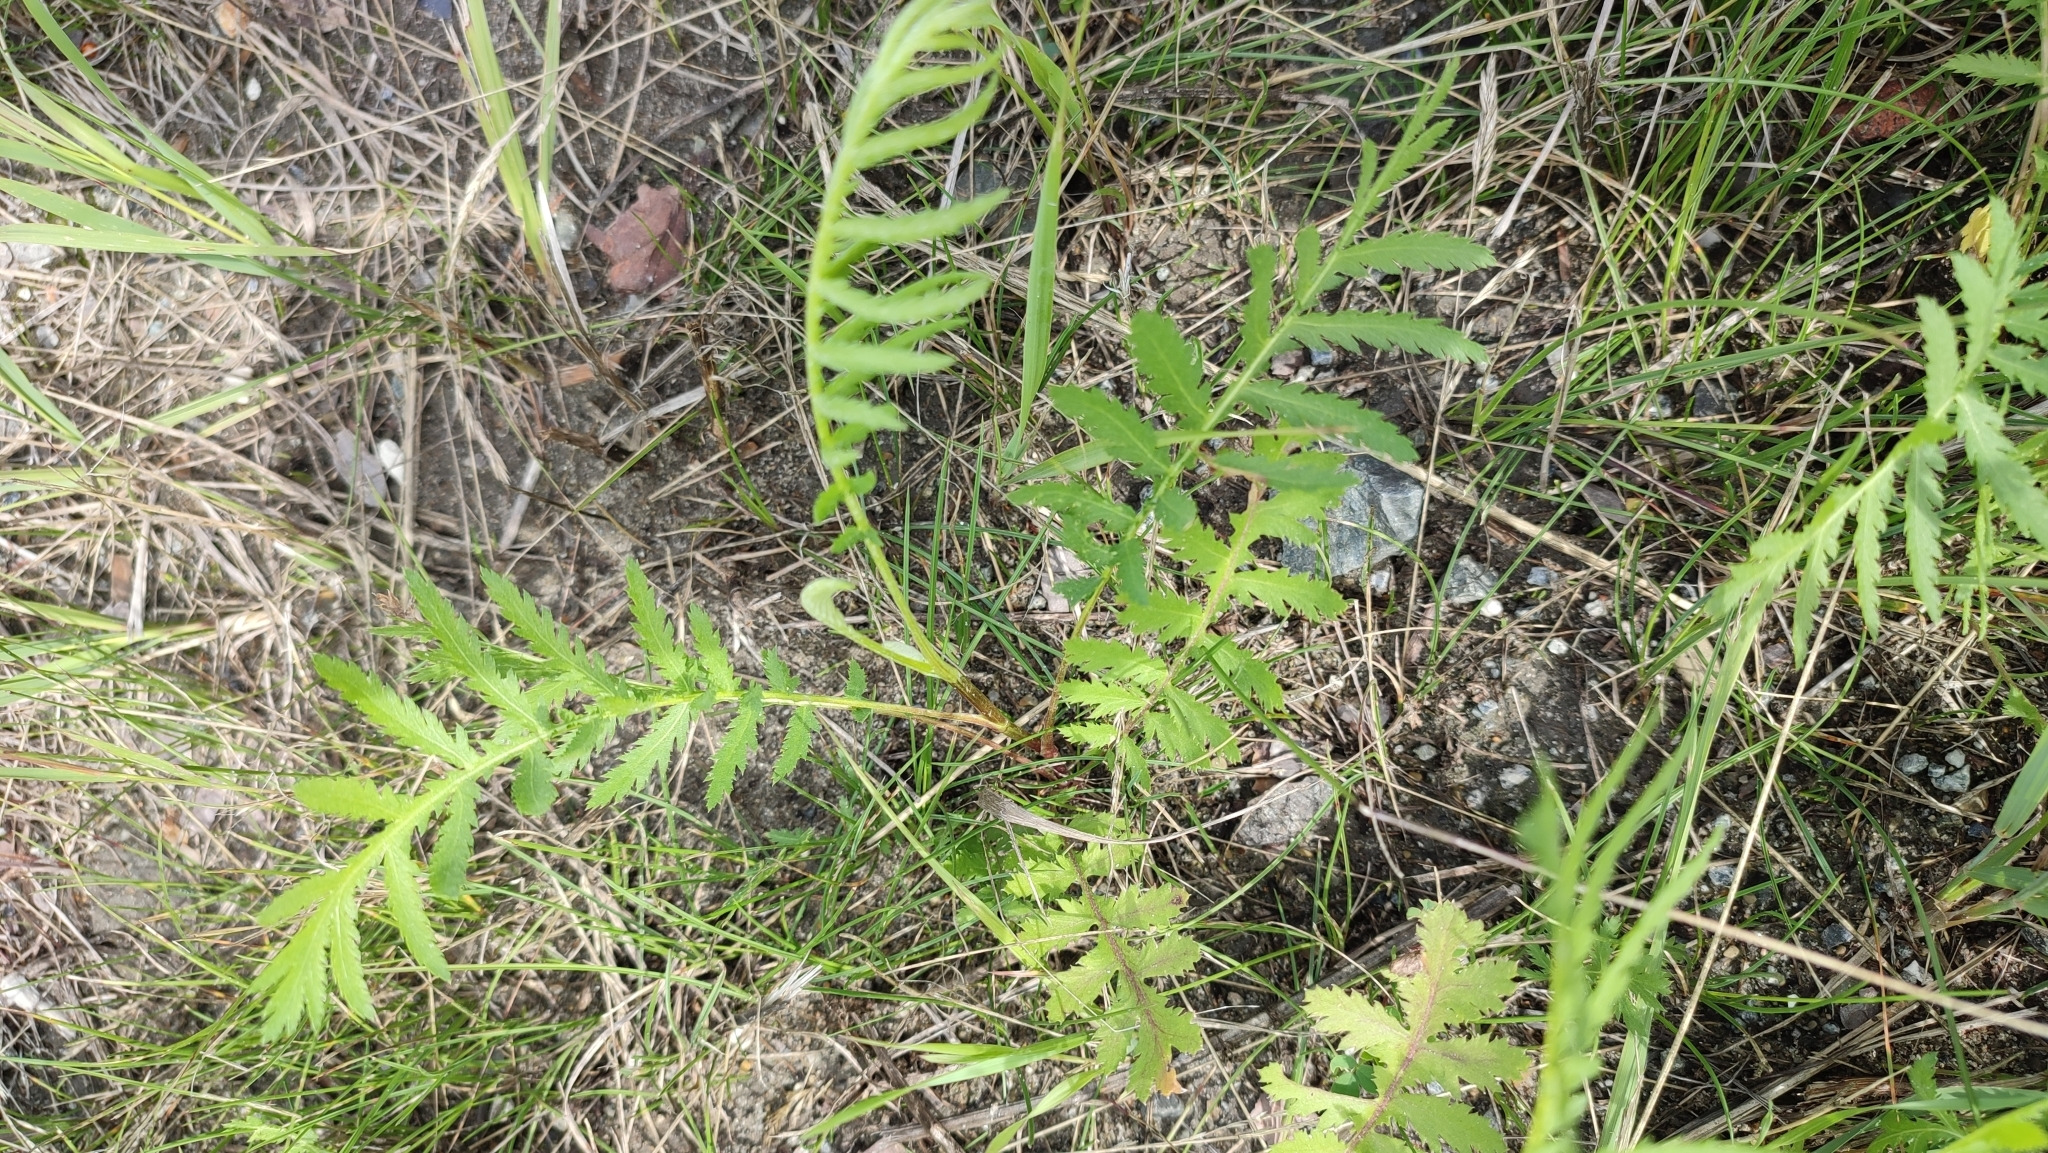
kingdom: Plantae
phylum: Tracheophyta
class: Magnoliopsida
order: Asterales
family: Asteraceae
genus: Tanacetum
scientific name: Tanacetum vulgare
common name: Common tansy
